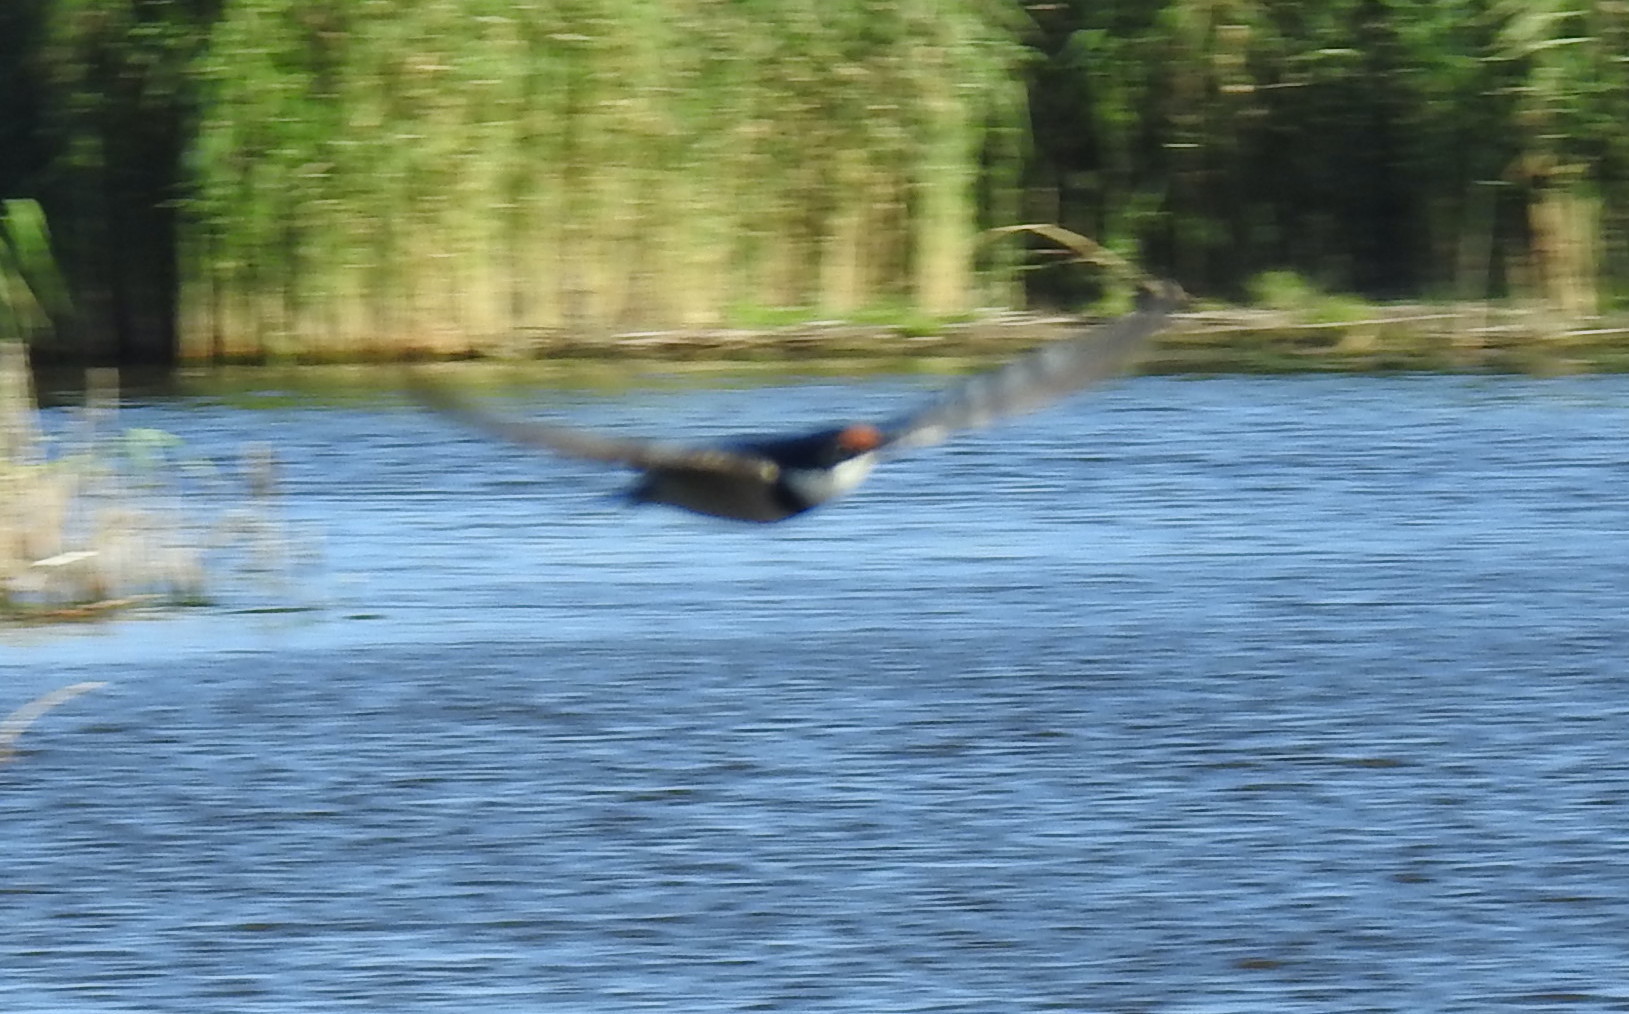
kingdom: Animalia
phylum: Chordata
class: Aves
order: Passeriformes
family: Hirundinidae
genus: Cecropis
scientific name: Cecropis cucullata
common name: Greater striped-swallow
